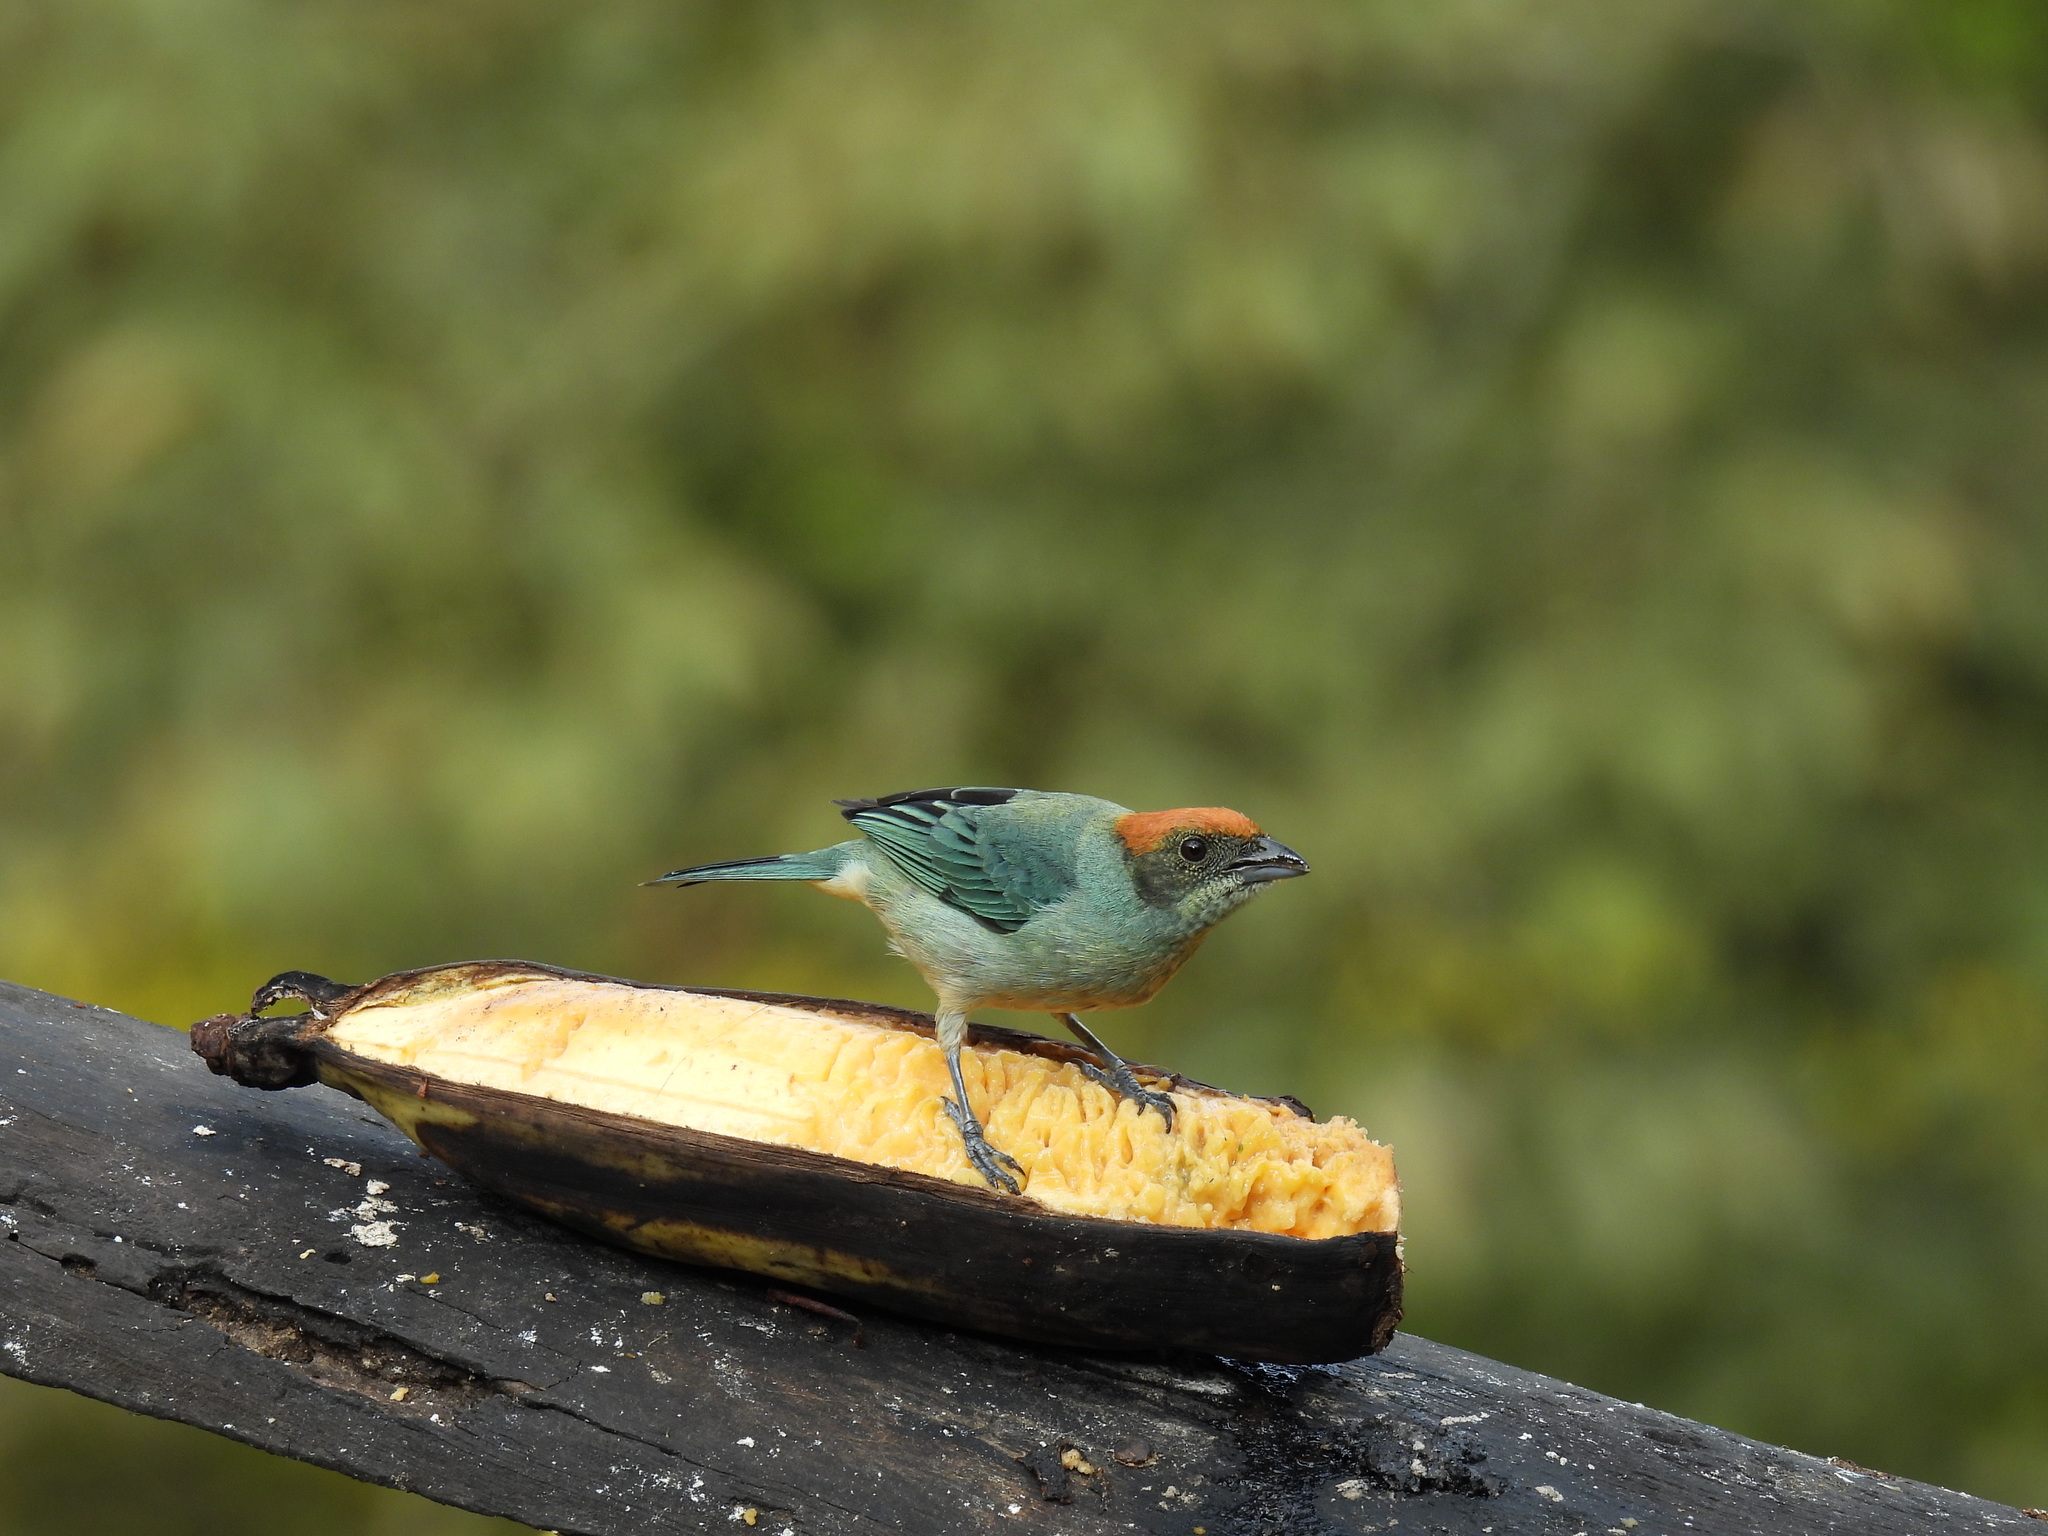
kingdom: Animalia
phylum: Chordata
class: Aves
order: Passeriformes
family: Thraupidae
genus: Stilpnia
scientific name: Stilpnia vitriolina
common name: Scrub tanager
